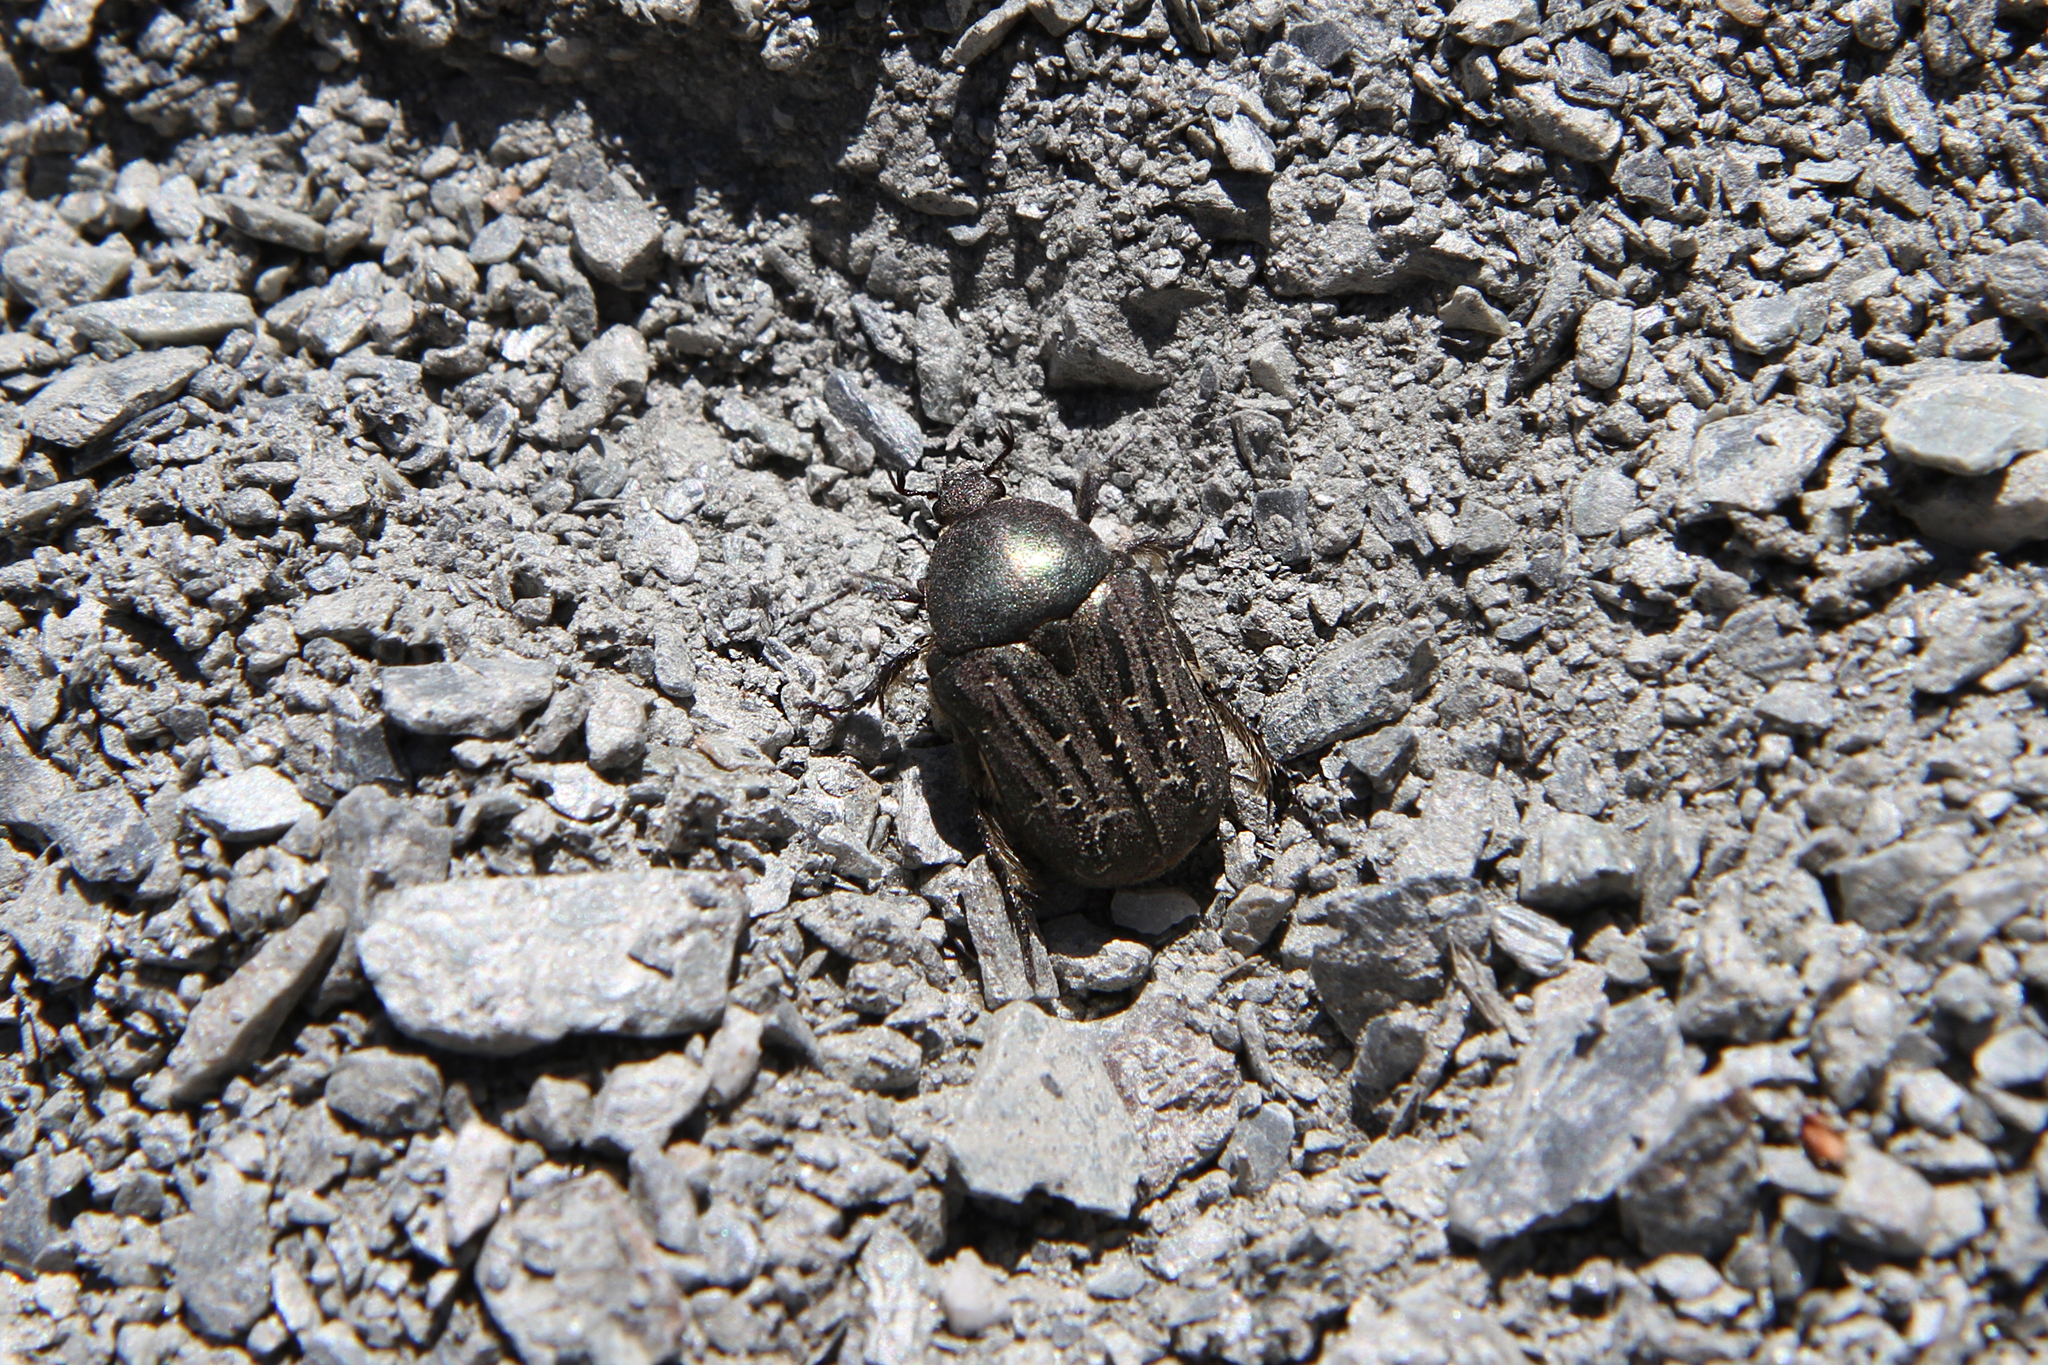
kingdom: Animalia
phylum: Arthropoda
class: Insecta
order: Coleoptera
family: Scarabaeidae
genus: Protaetia
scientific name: Protaetia interruptecostata
